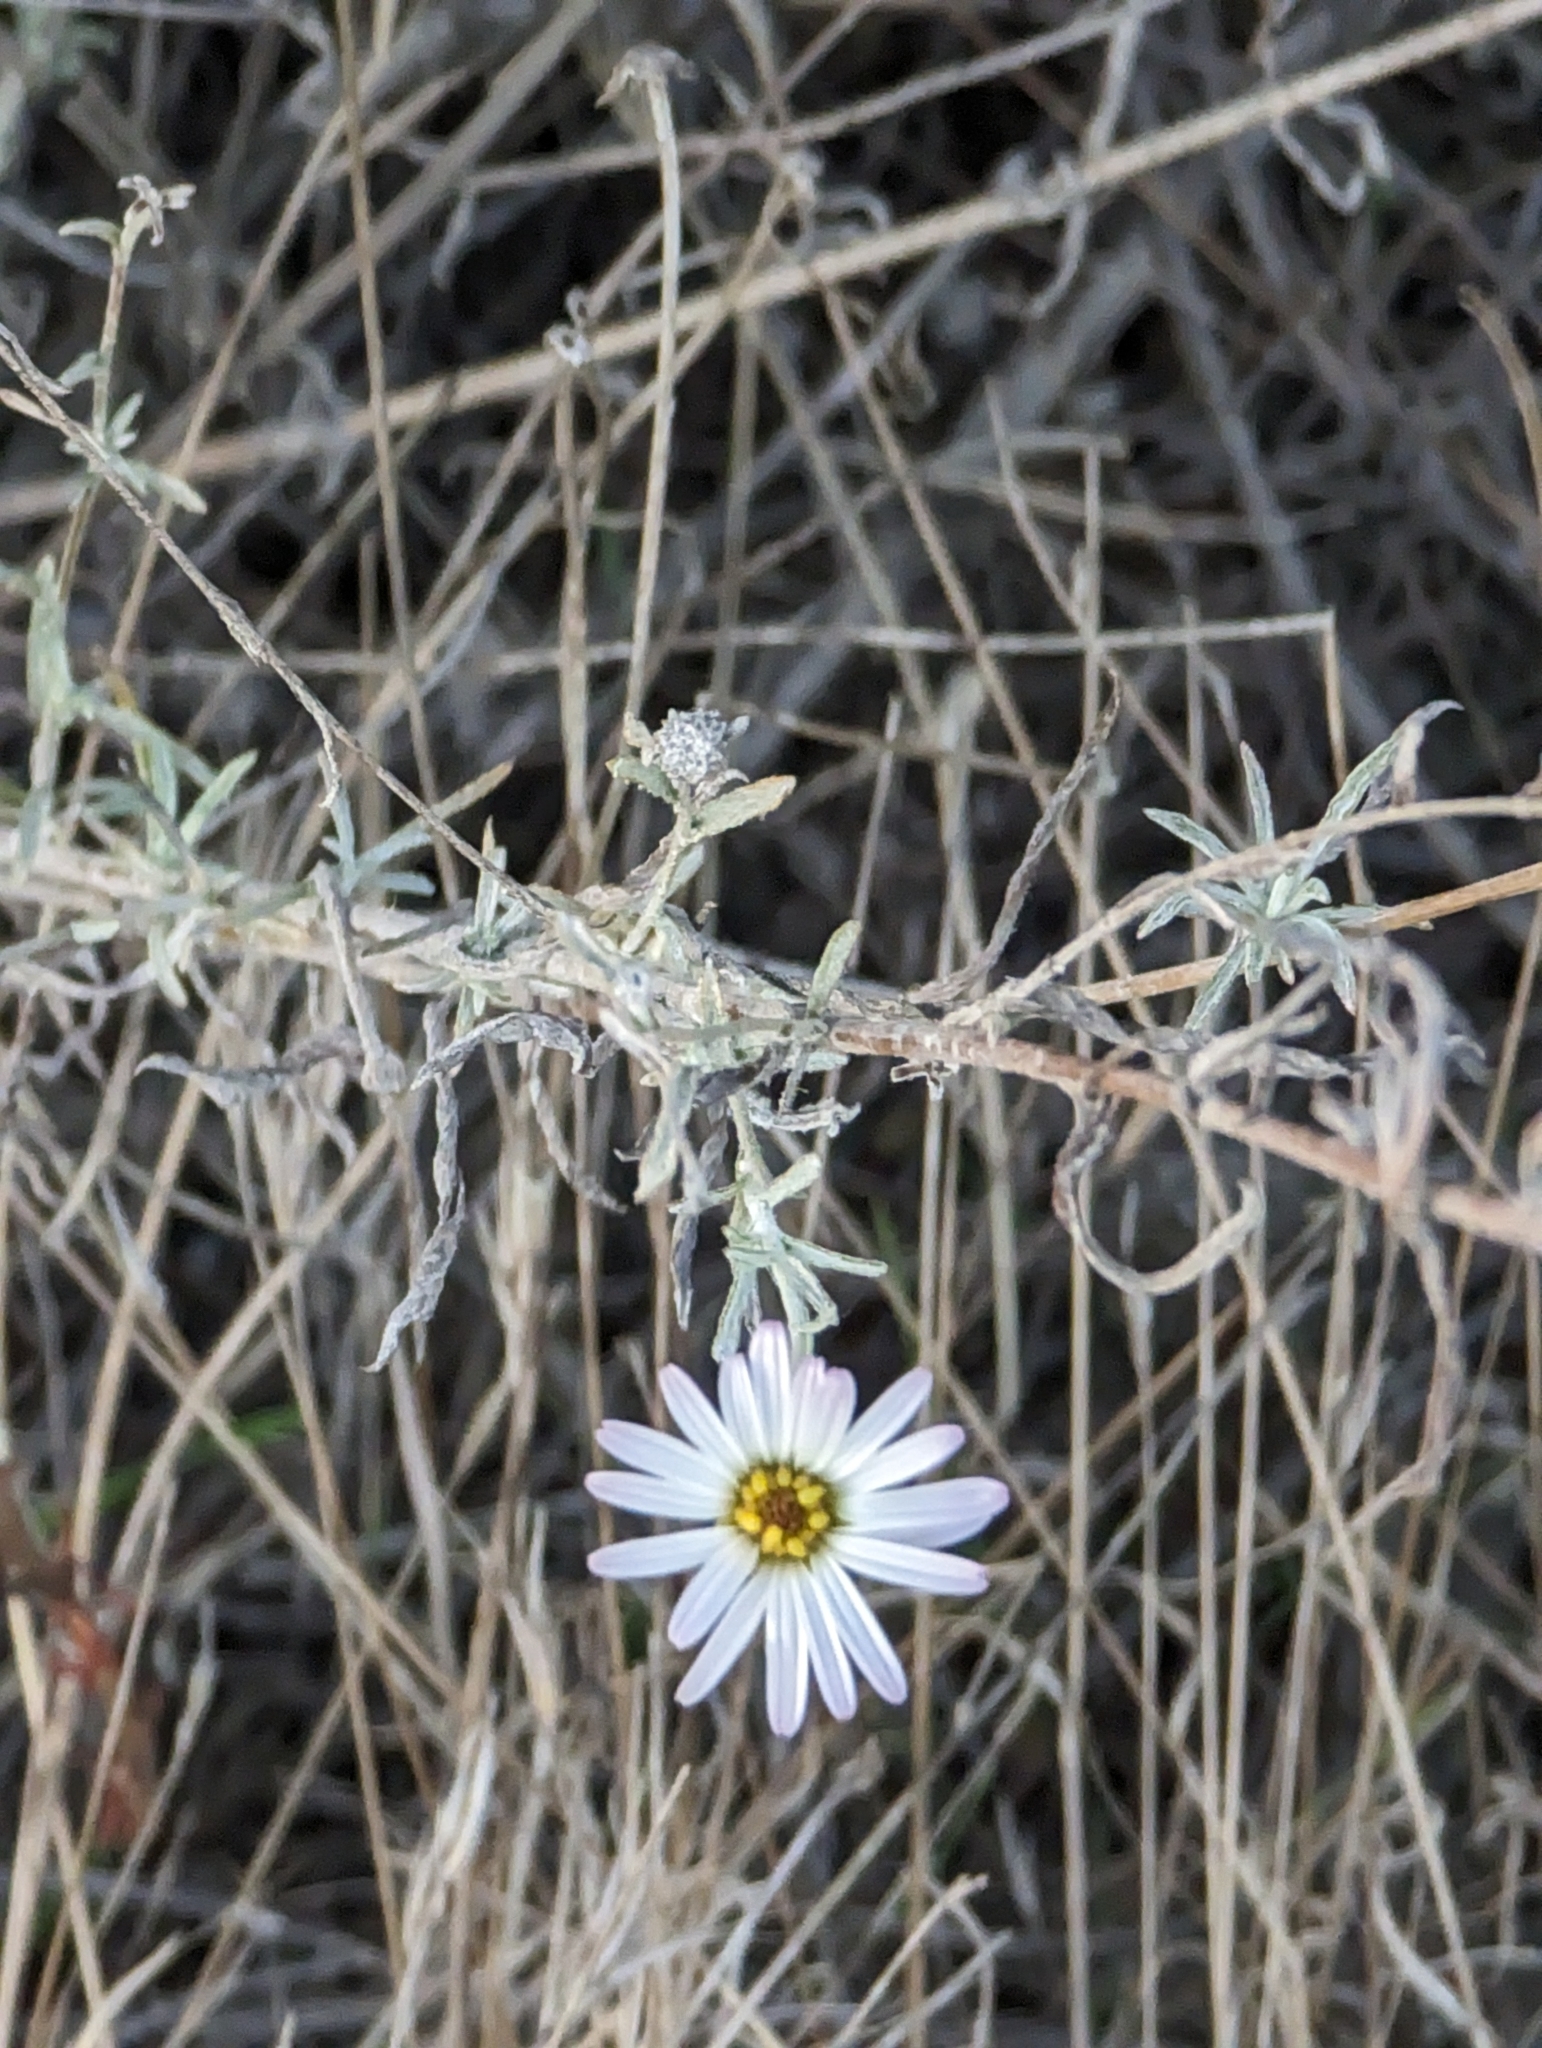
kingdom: Plantae
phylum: Tracheophyta
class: Magnoliopsida
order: Asterales
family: Asteraceae
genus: Corethrogyne
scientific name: Corethrogyne filaginifolia
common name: Sand-aster
